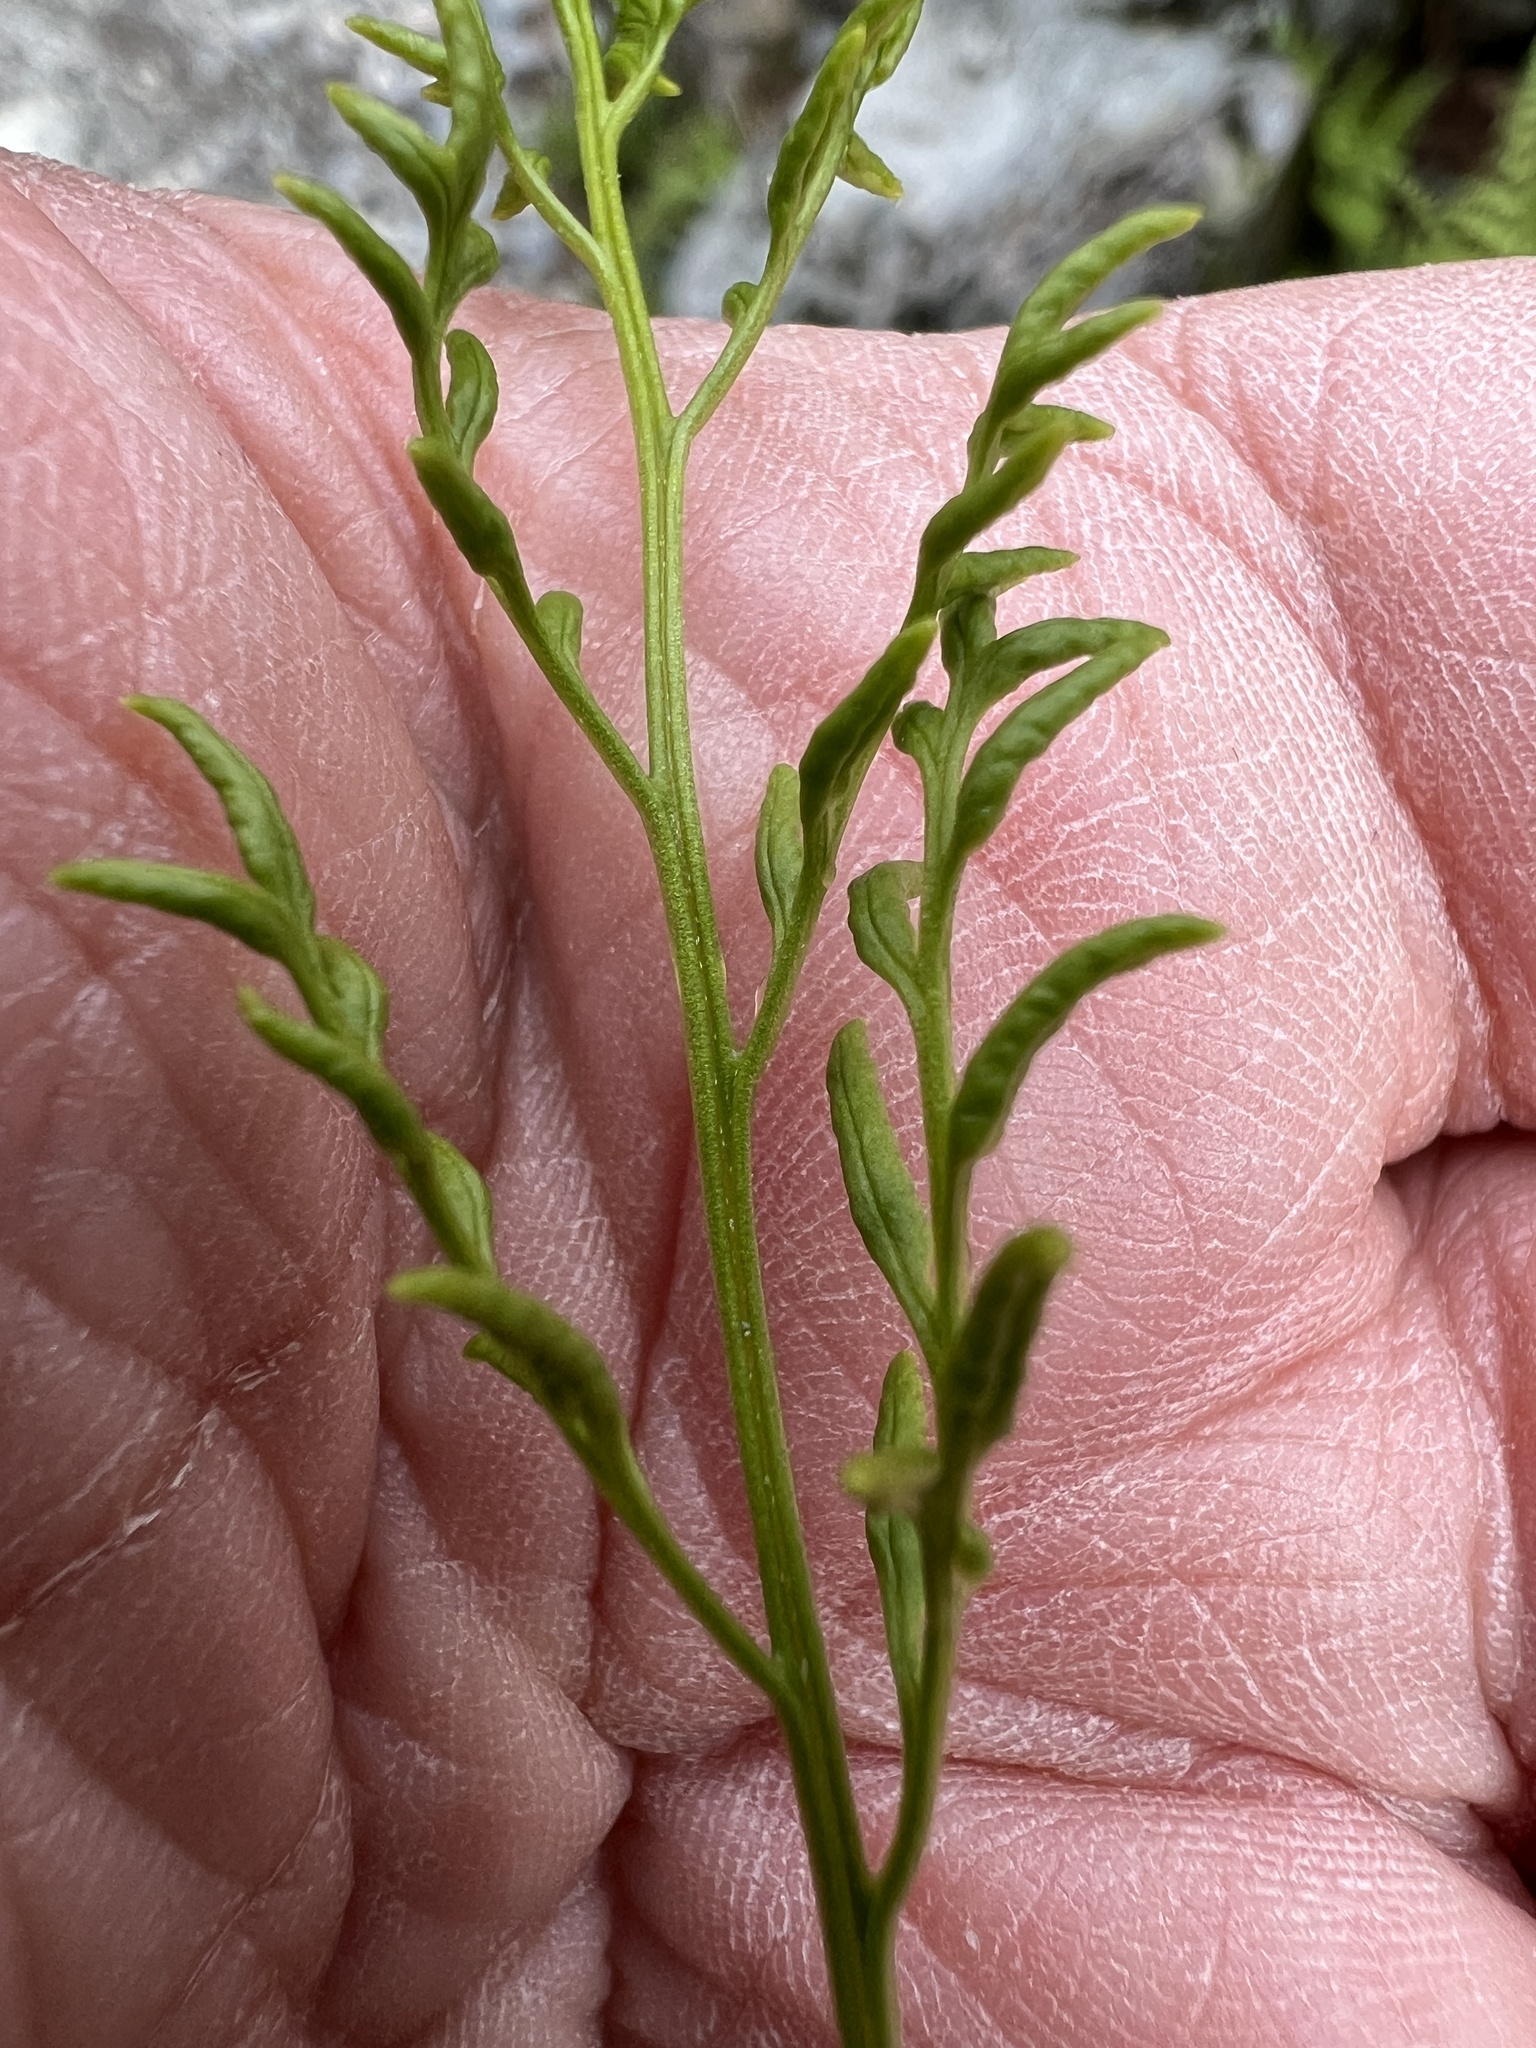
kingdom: Plantae
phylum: Tracheophyta
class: Polypodiopsida
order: Polypodiales
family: Pteridaceae
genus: Cryptogramma
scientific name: Cryptogramma acrostichoides
